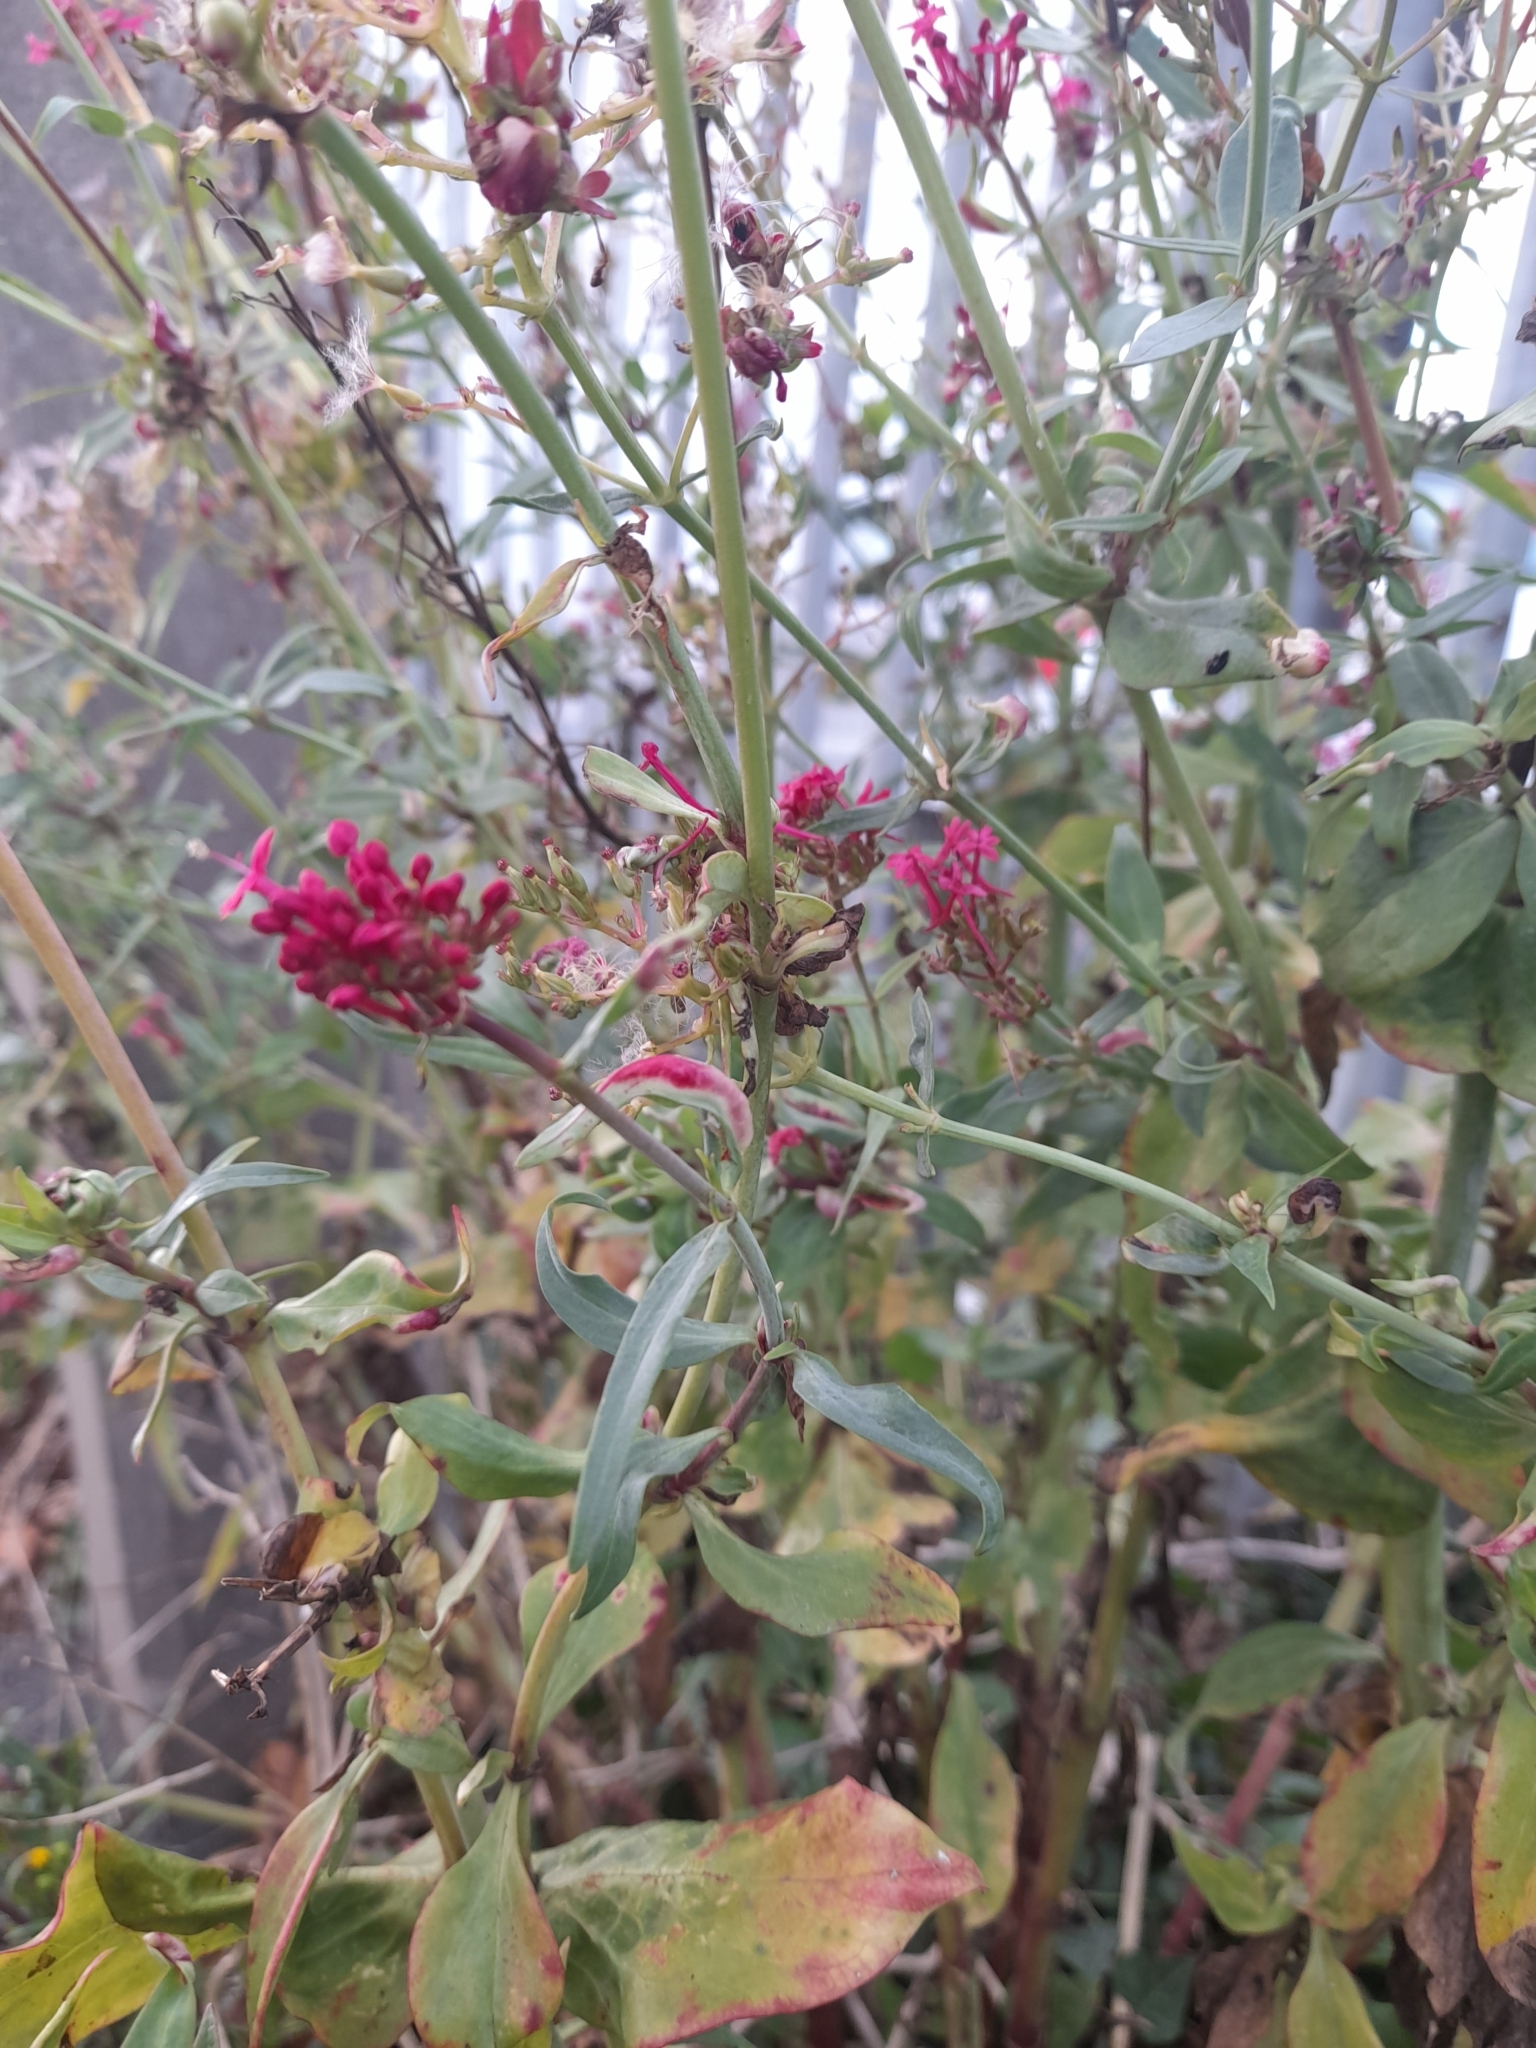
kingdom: Plantae
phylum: Tracheophyta
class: Magnoliopsida
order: Dipsacales
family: Caprifoliaceae
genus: Centranthus
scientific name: Centranthus ruber
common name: Red valerian
